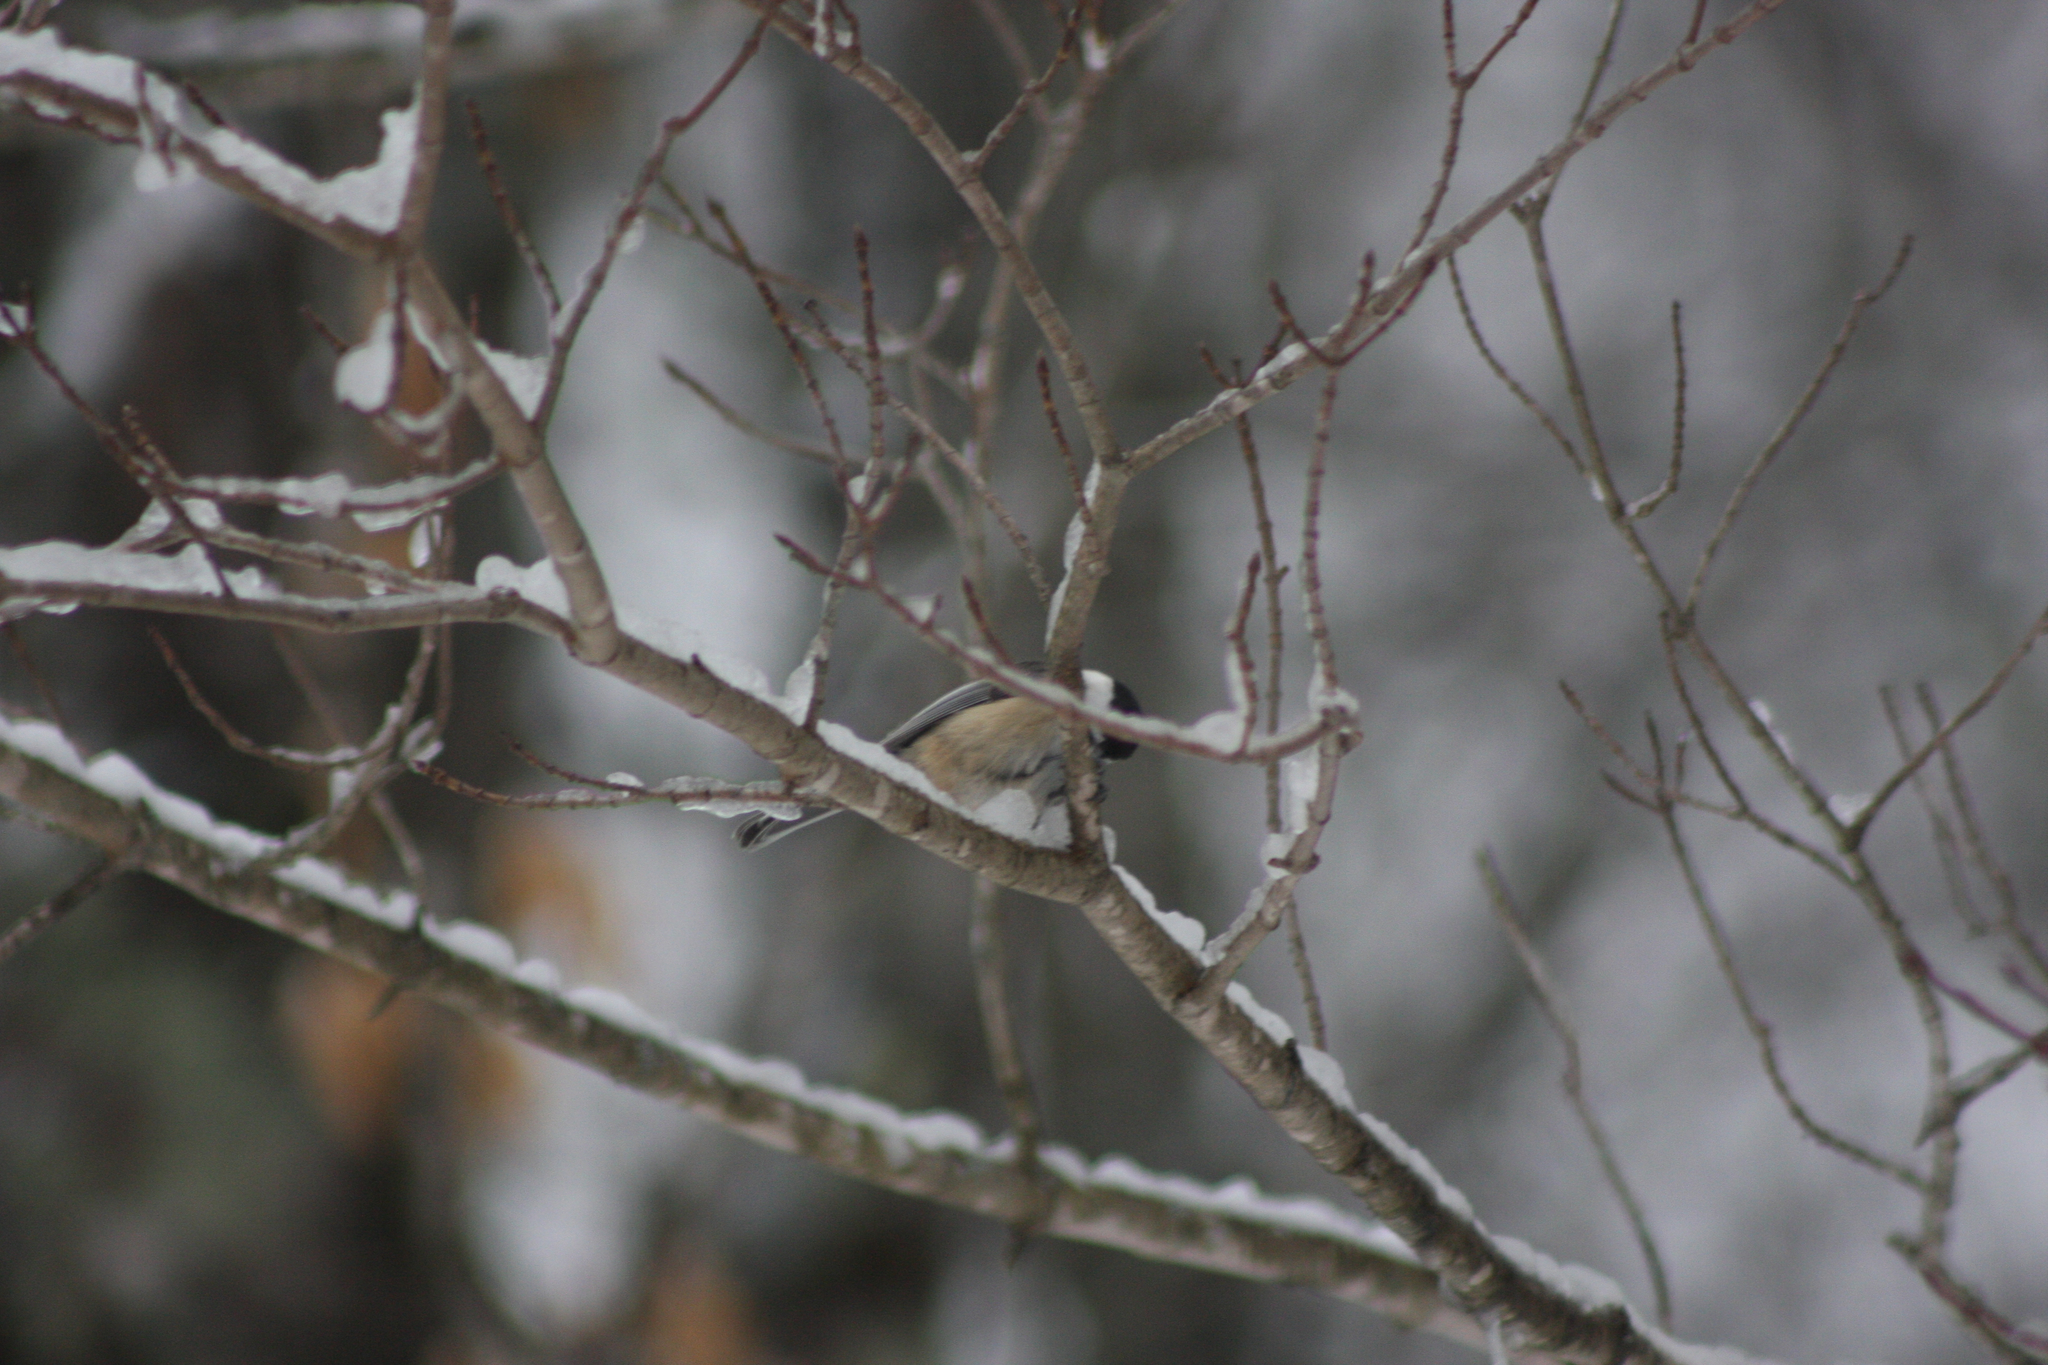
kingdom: Animalia
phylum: Chordata
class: Aves
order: Passeriformes
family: Paridae
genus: Poecile
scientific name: Poecile atricapillus
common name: Black-capped chickadee
